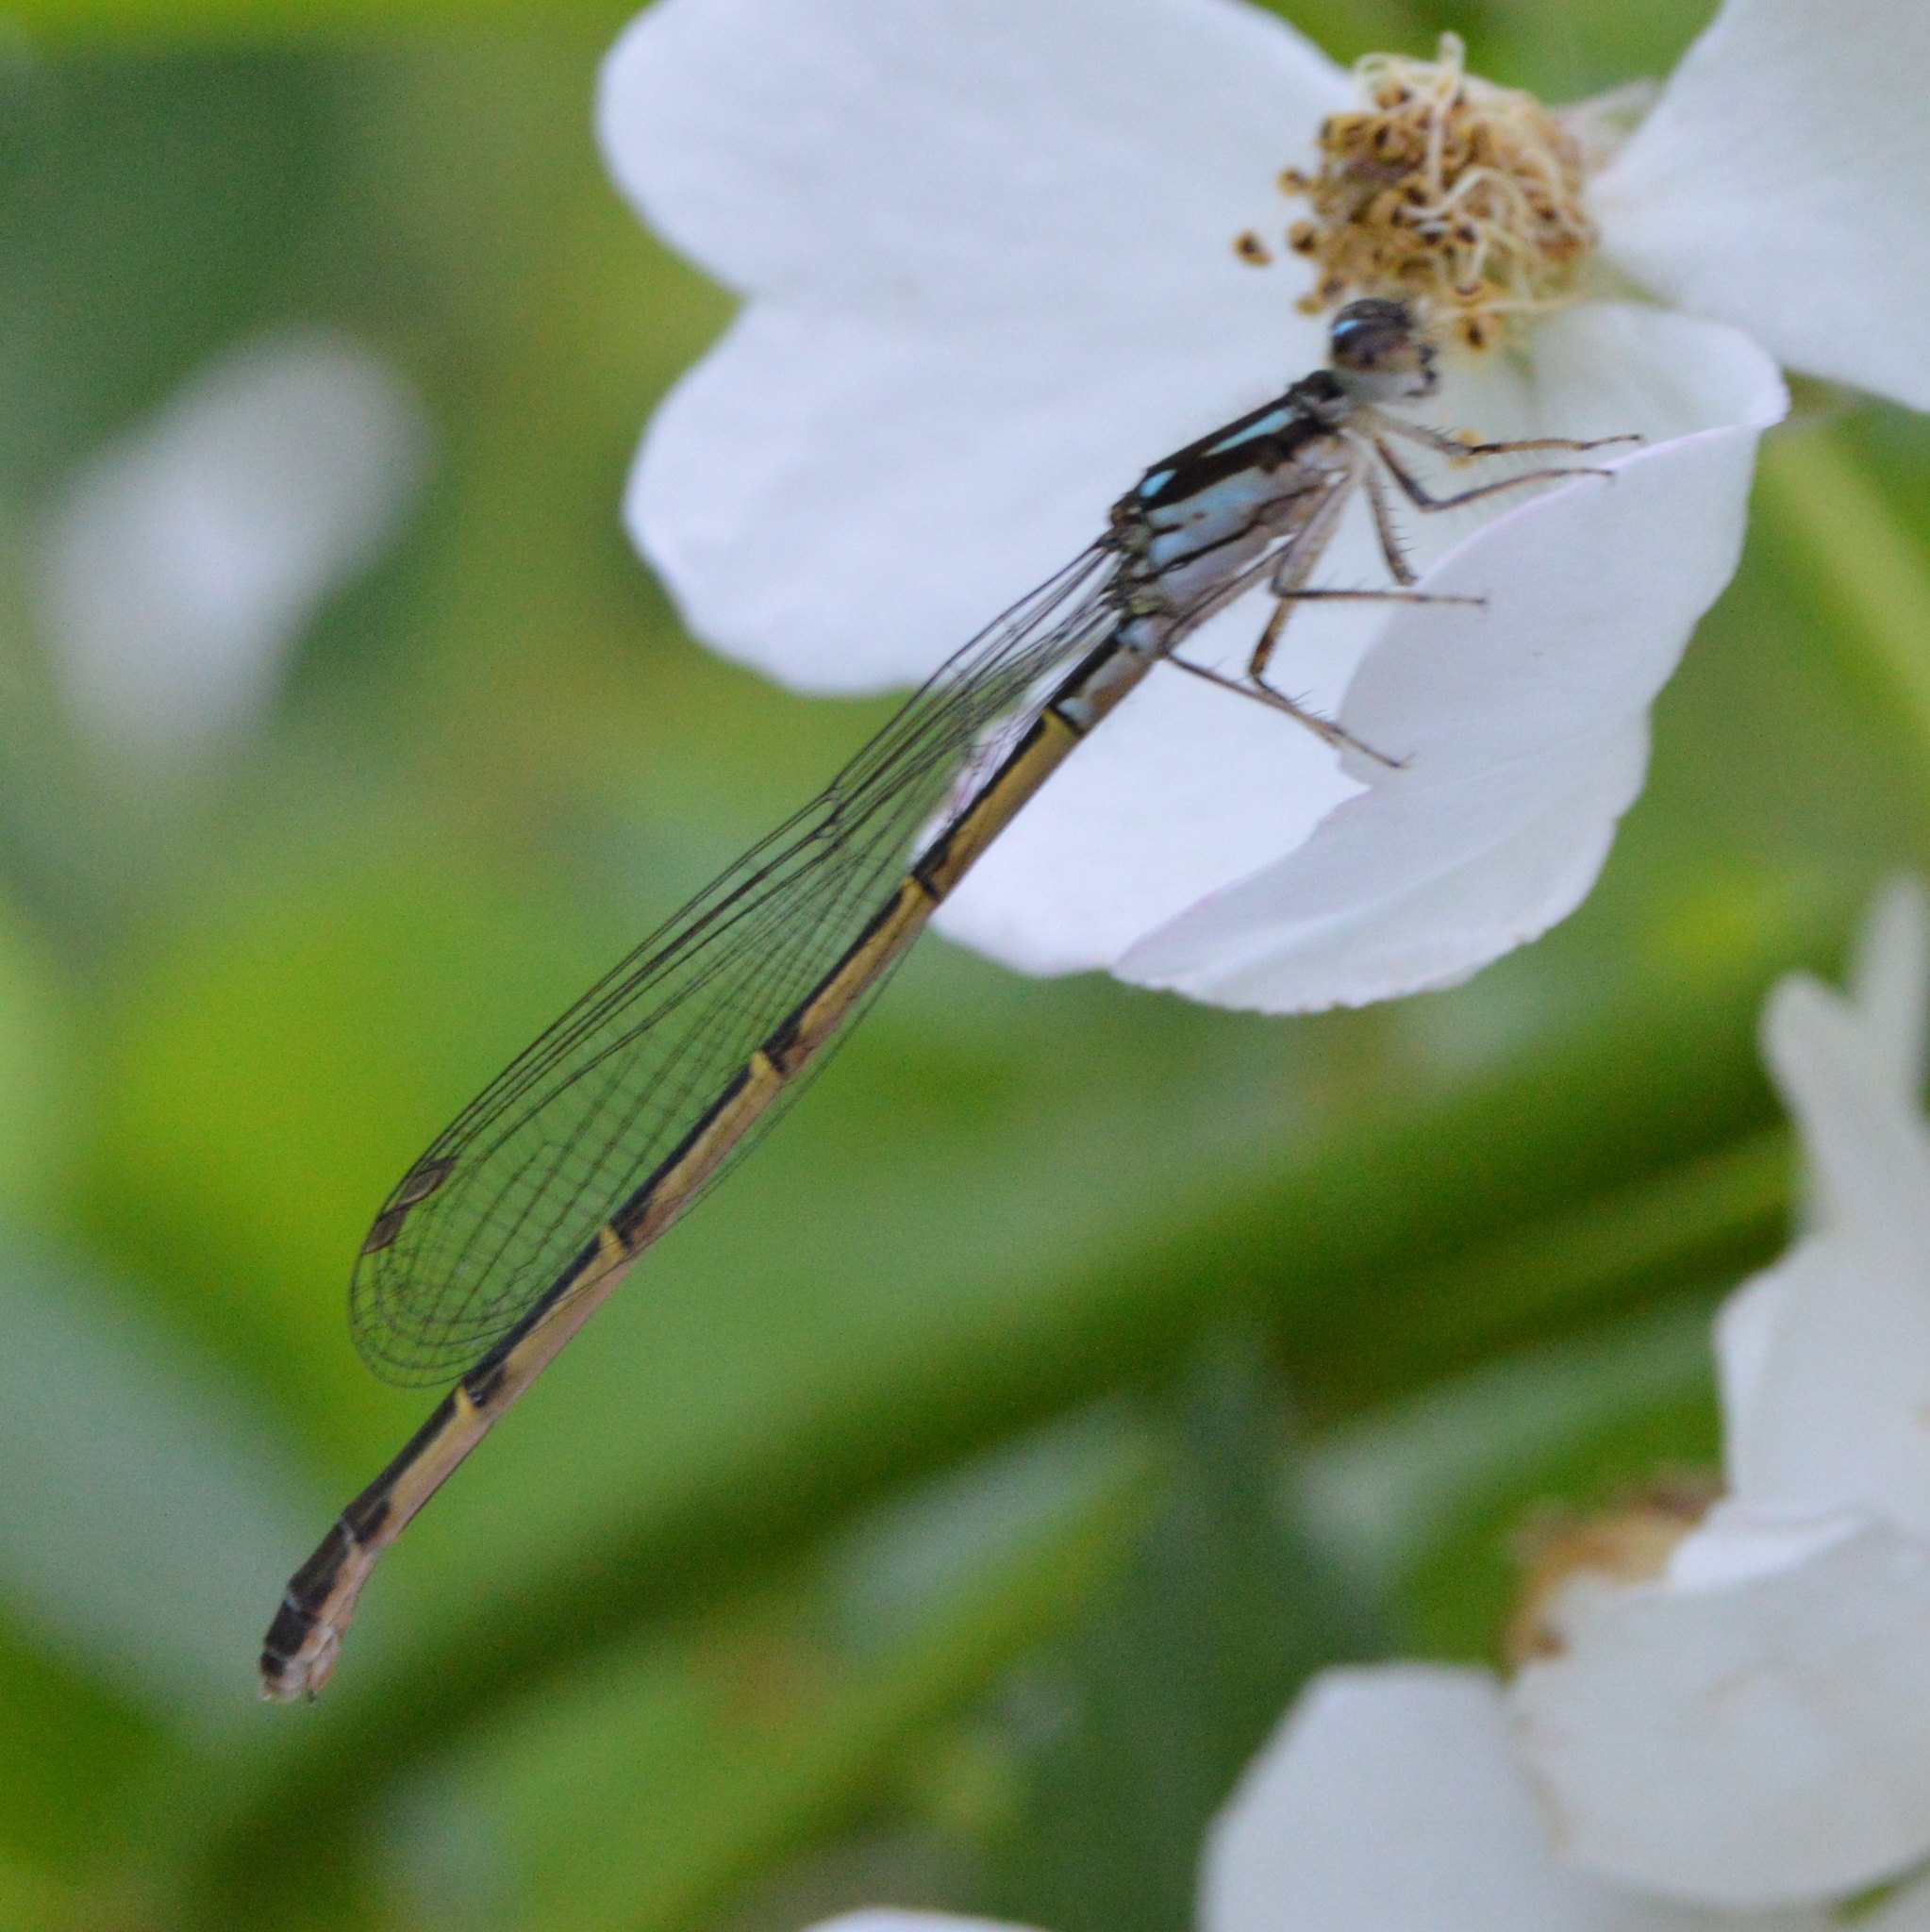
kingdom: Animalia
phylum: Arthropoda
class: Insecta
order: Odonata
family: Coenagrionidae
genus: Ischnura
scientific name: Ischnura posita
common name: Fragile forktail
